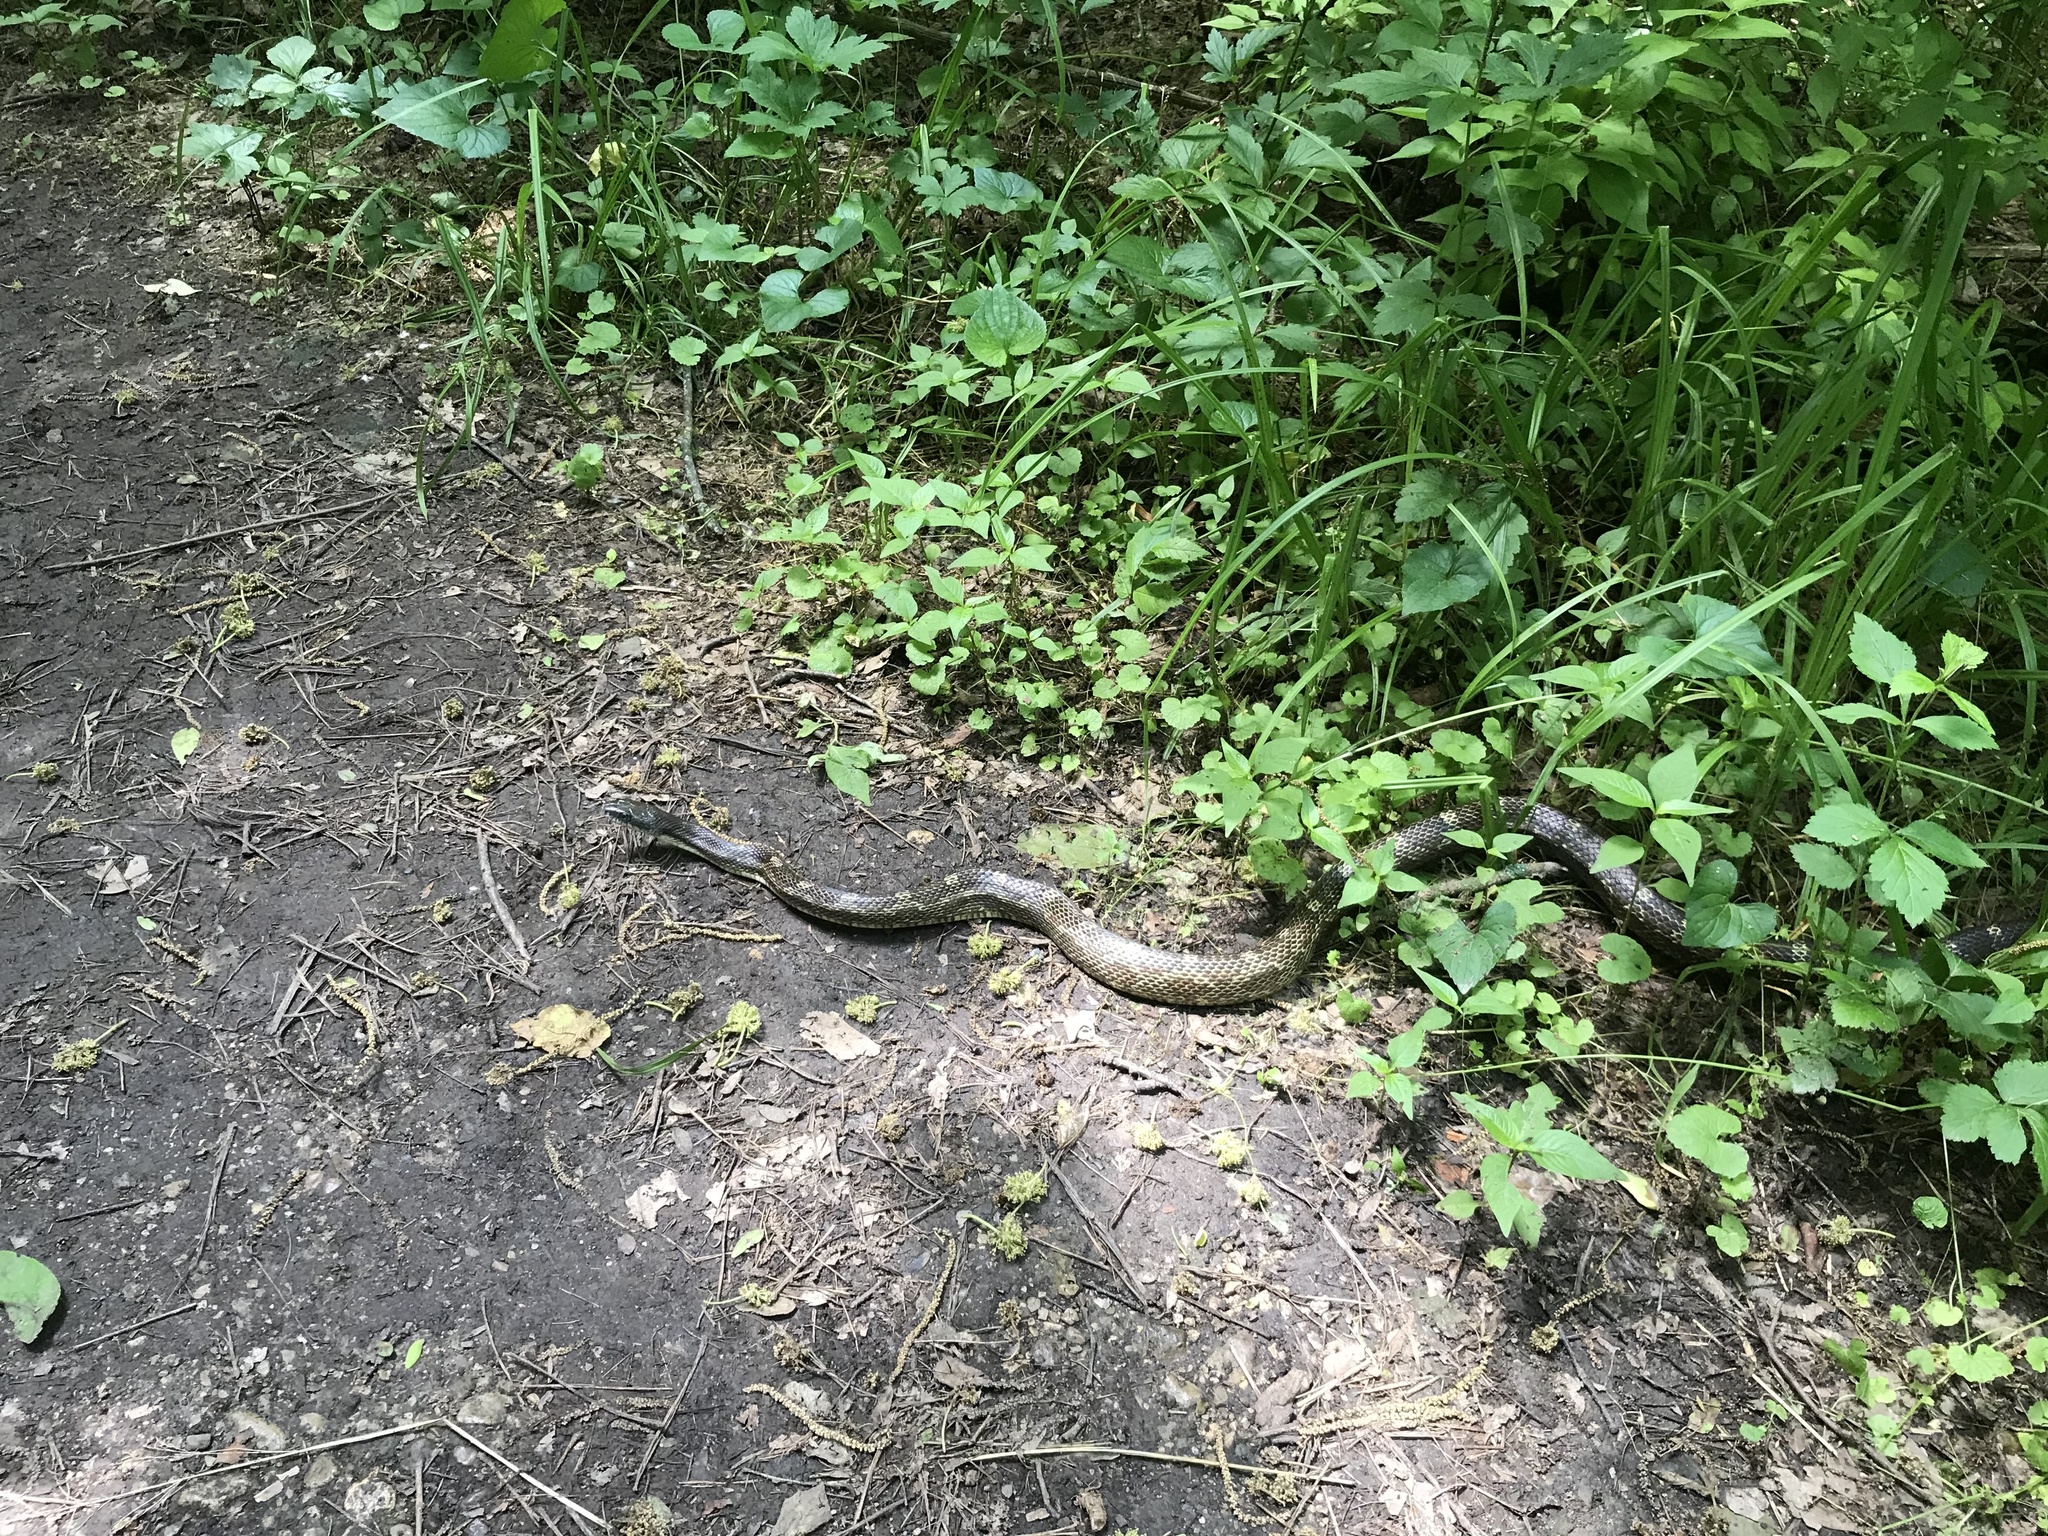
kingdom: Animalia
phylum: Chordata
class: Squamata
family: Colubridae
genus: Pantherophis
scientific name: Pantherophis spiloides
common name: Gray rat snake
